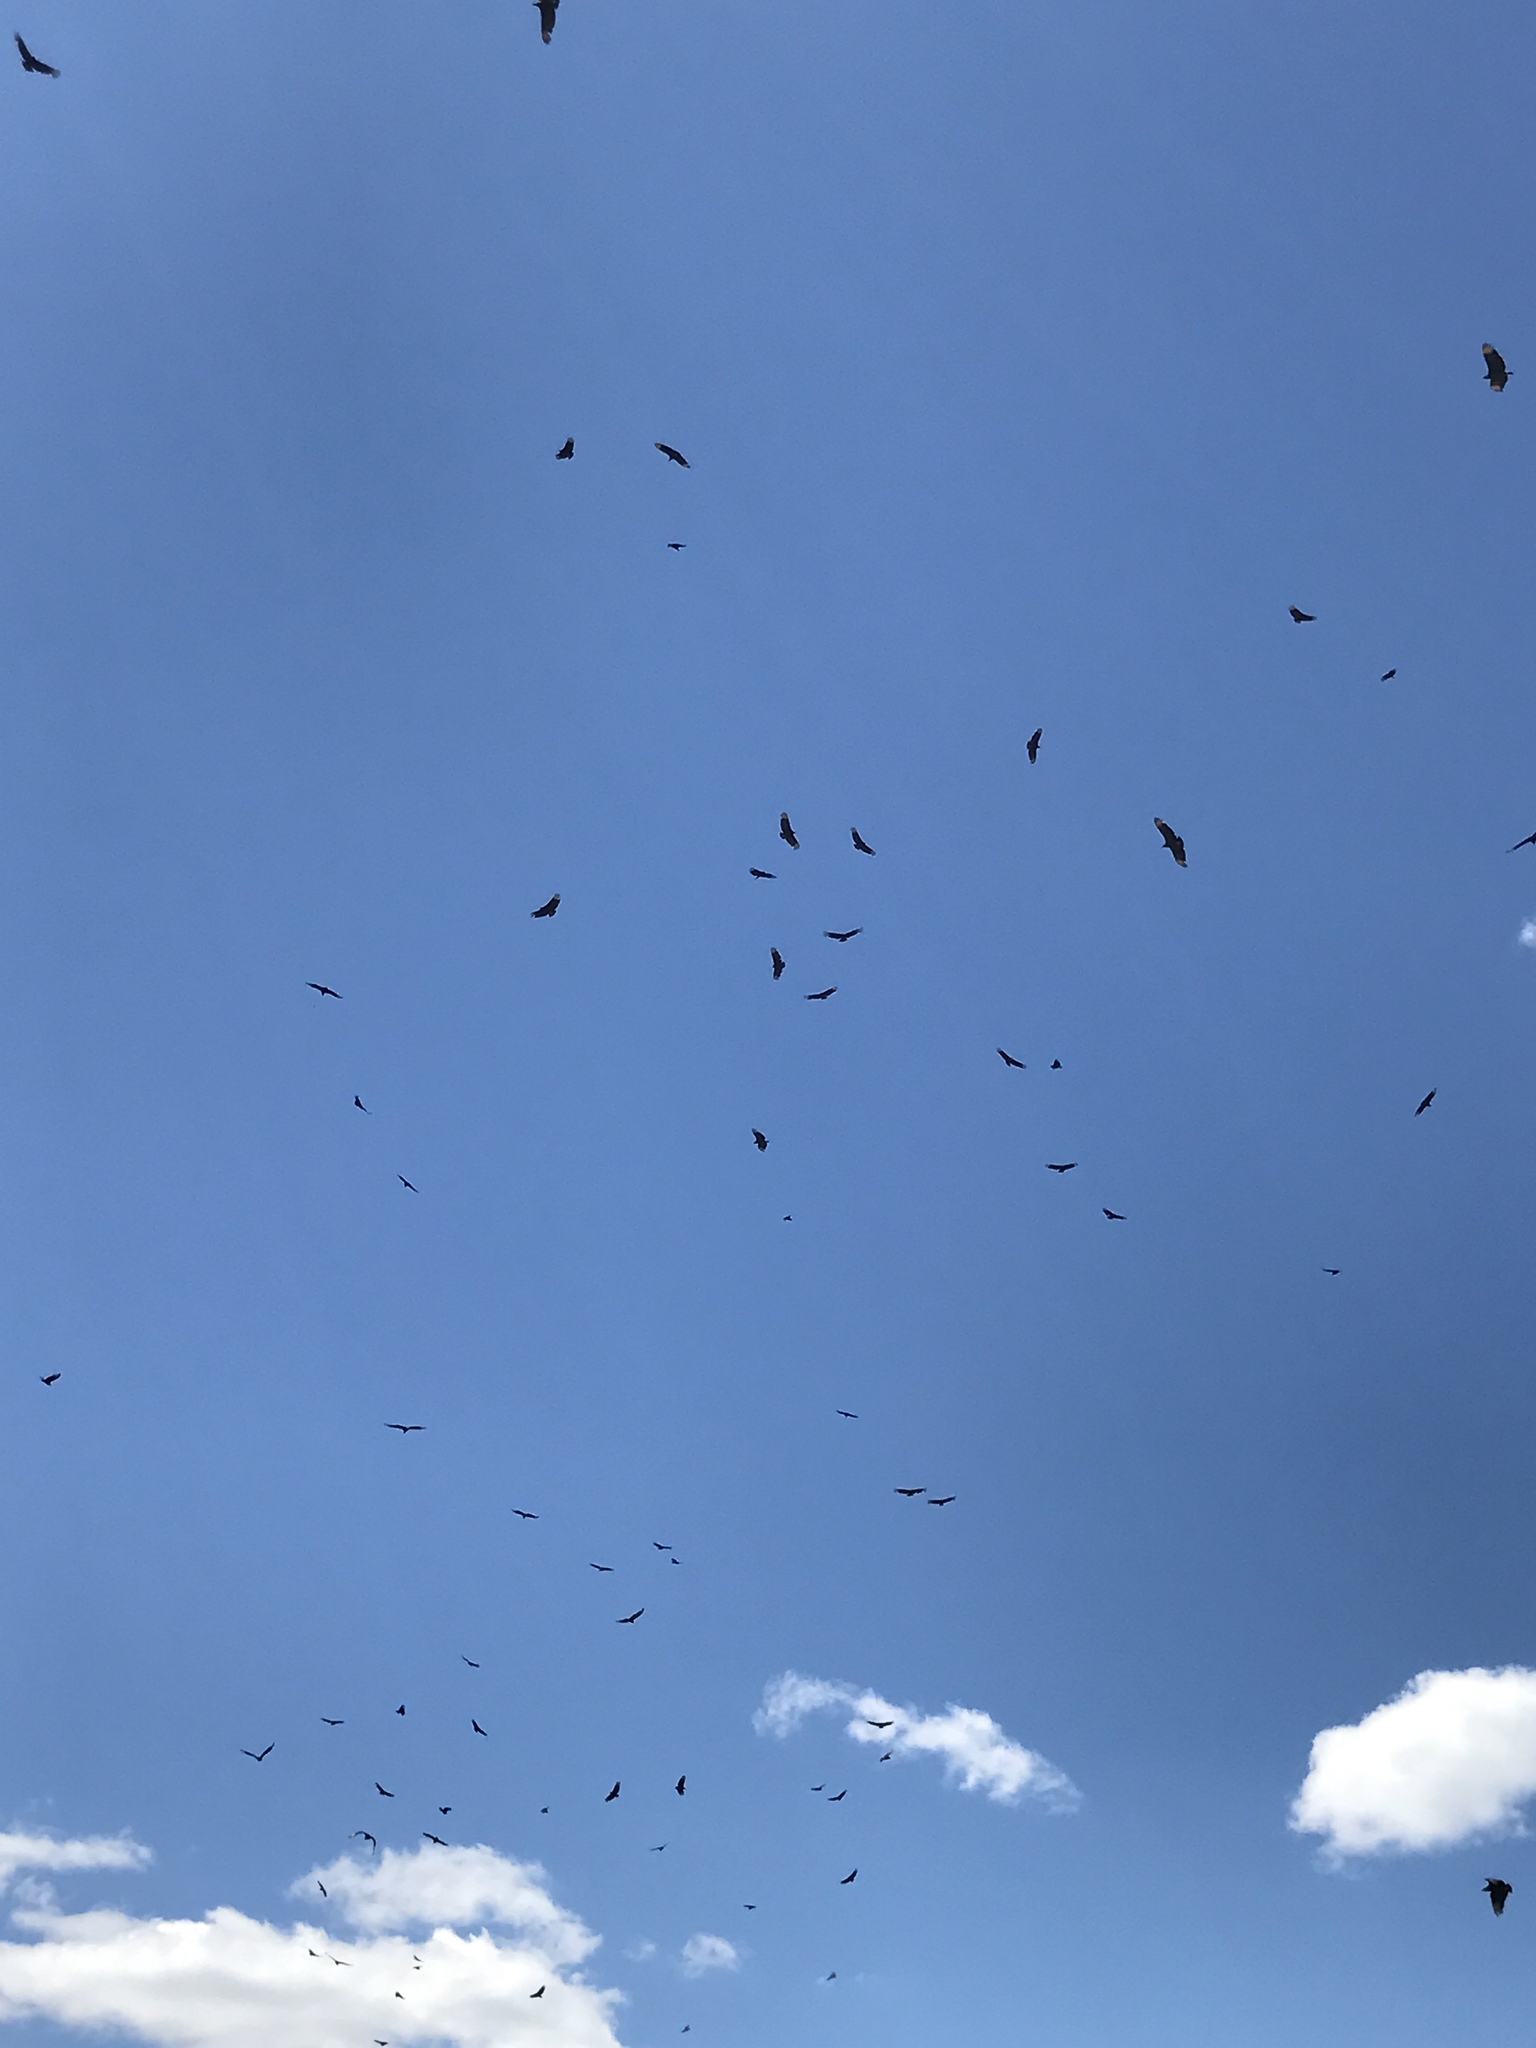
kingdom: Animalia
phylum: Chordata
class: Aves
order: Accipitriformes
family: Cathartidae
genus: Coragyps
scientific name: Coragyps atratus
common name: Black vulture
